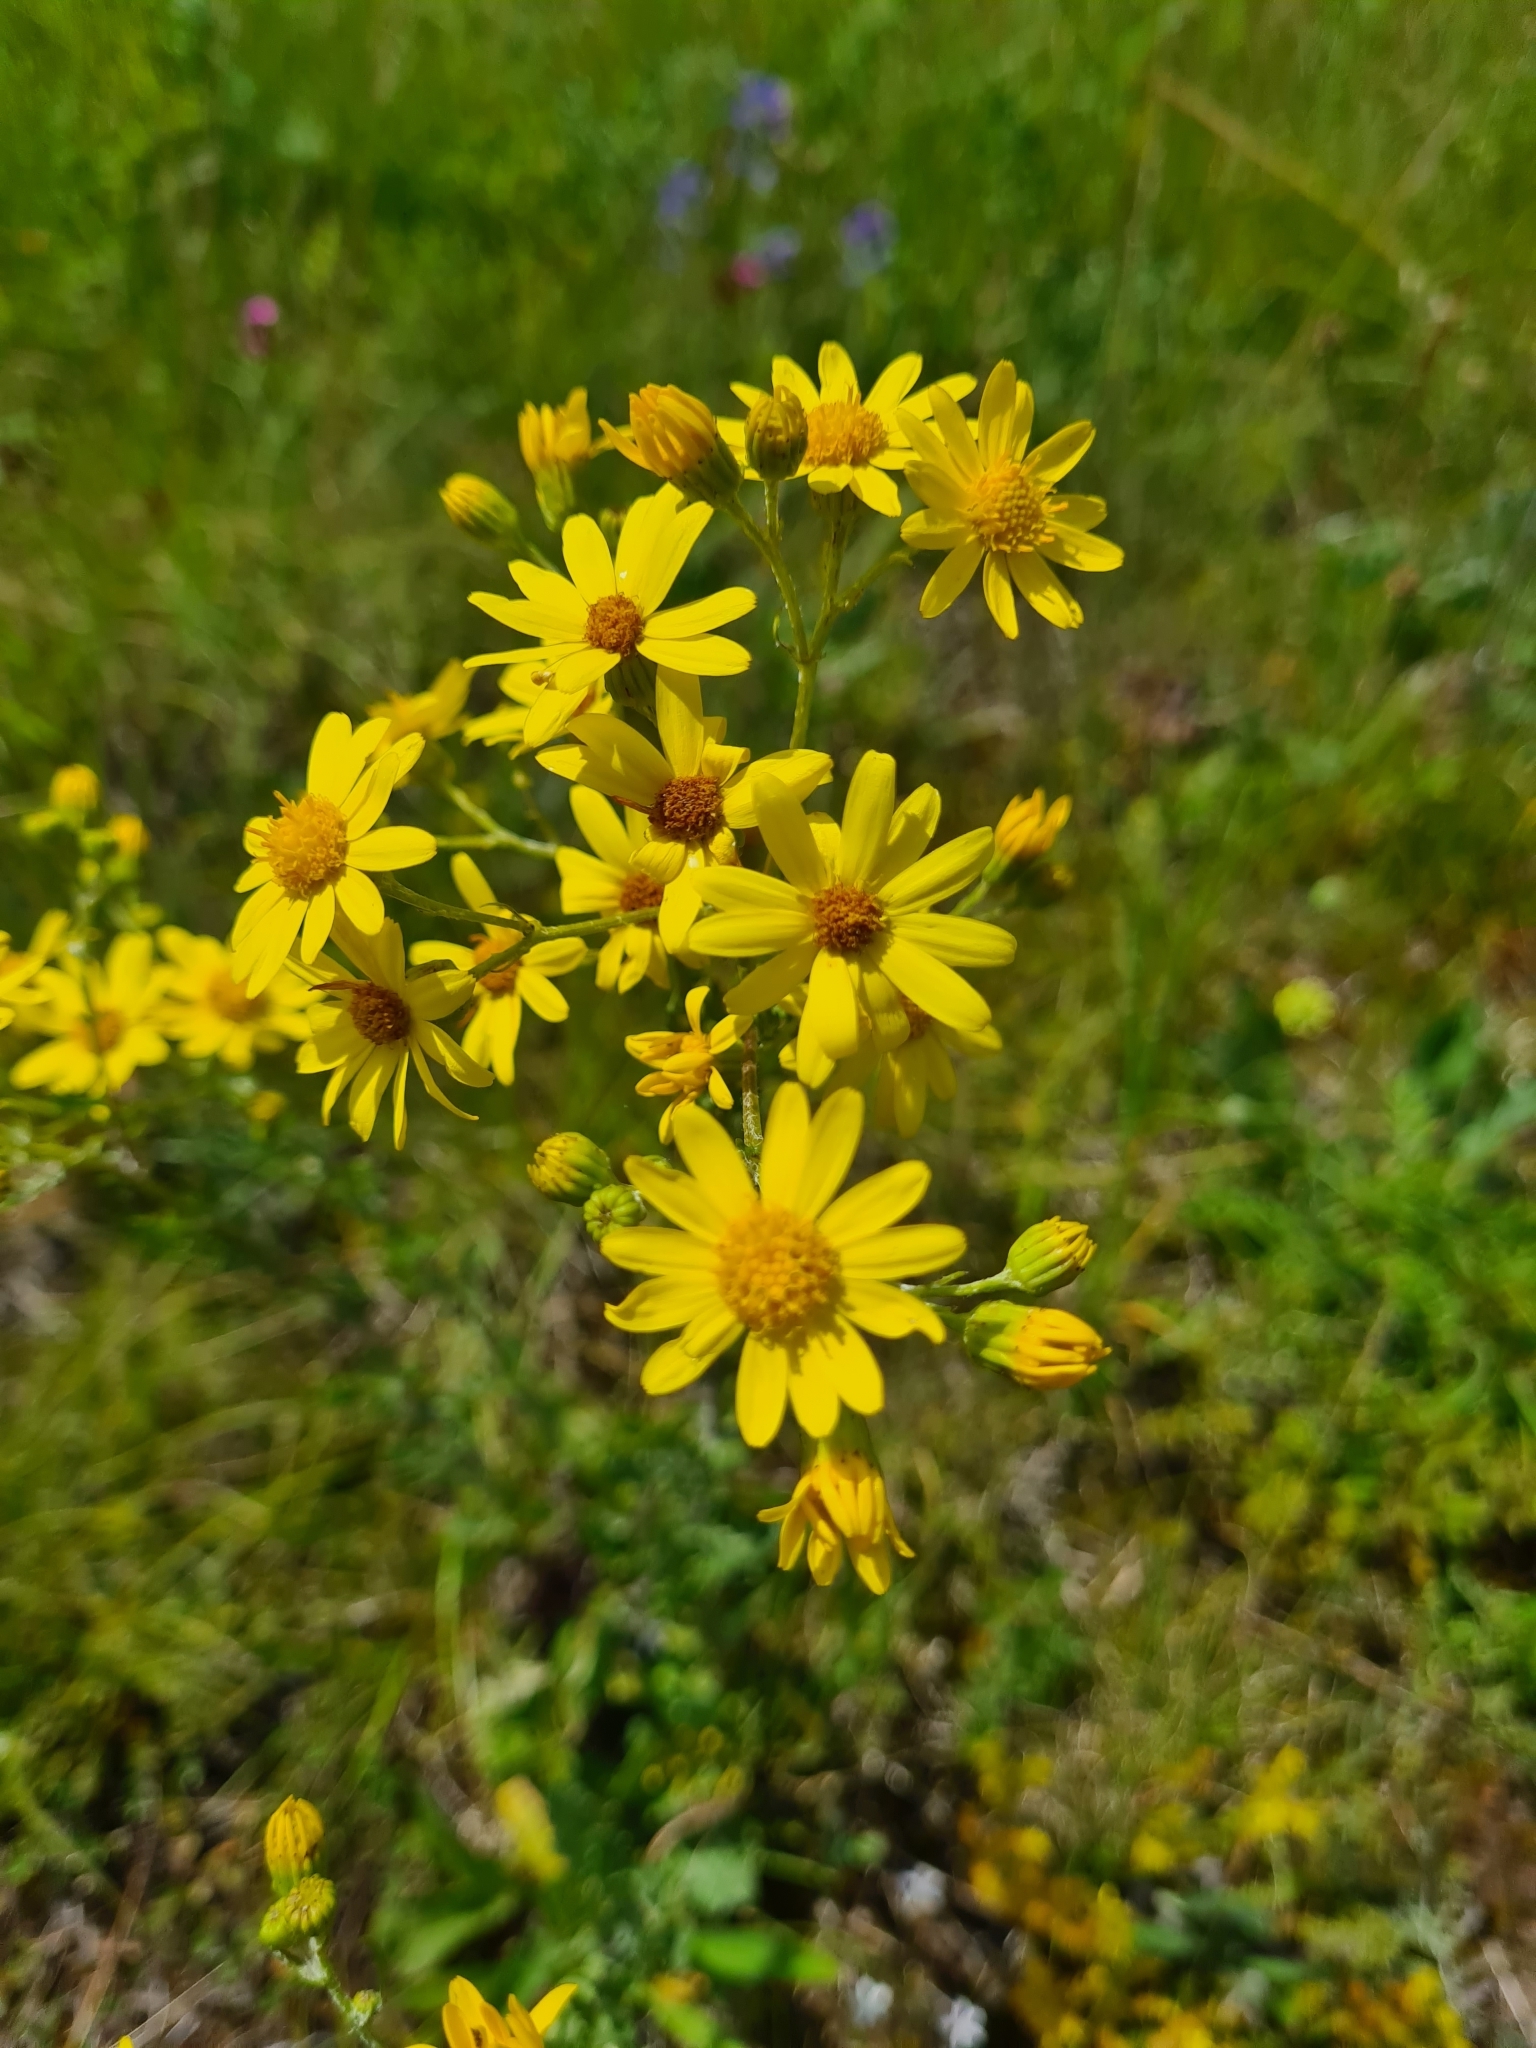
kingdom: Plantae
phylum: Tracheophyta
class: Magnoliopsida
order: Asterales
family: Asteraceae
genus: Jacobaea
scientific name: Jacobaea vulgaris
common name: Stinking willie
